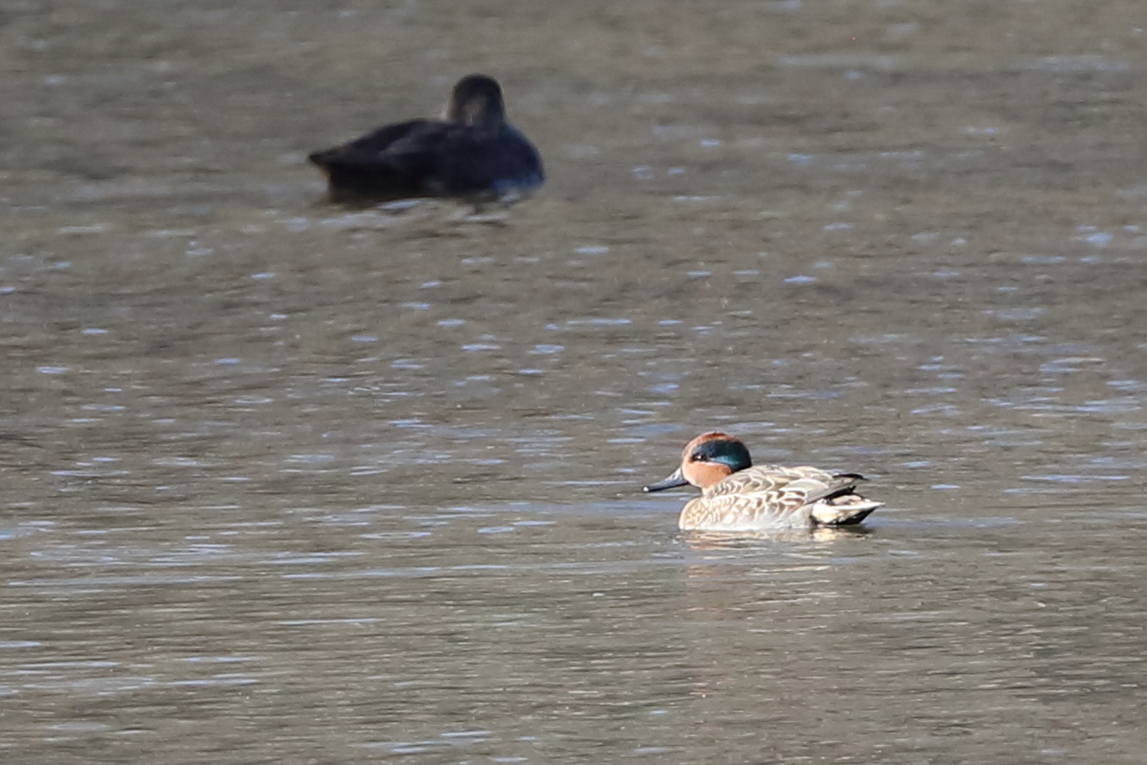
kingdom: Animalia
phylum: Chordata
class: Aves
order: Anseriformes
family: Anatidae
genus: Anas
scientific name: Anas crecca
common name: Eurasian teal
